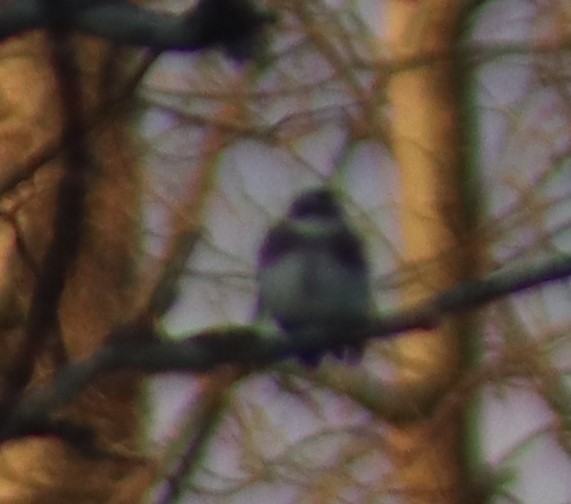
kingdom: Animalia
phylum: Chordata
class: Aves
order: Passeriformes
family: Hirundinidae
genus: Riparia
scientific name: Riparia riparia
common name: Sand martin
